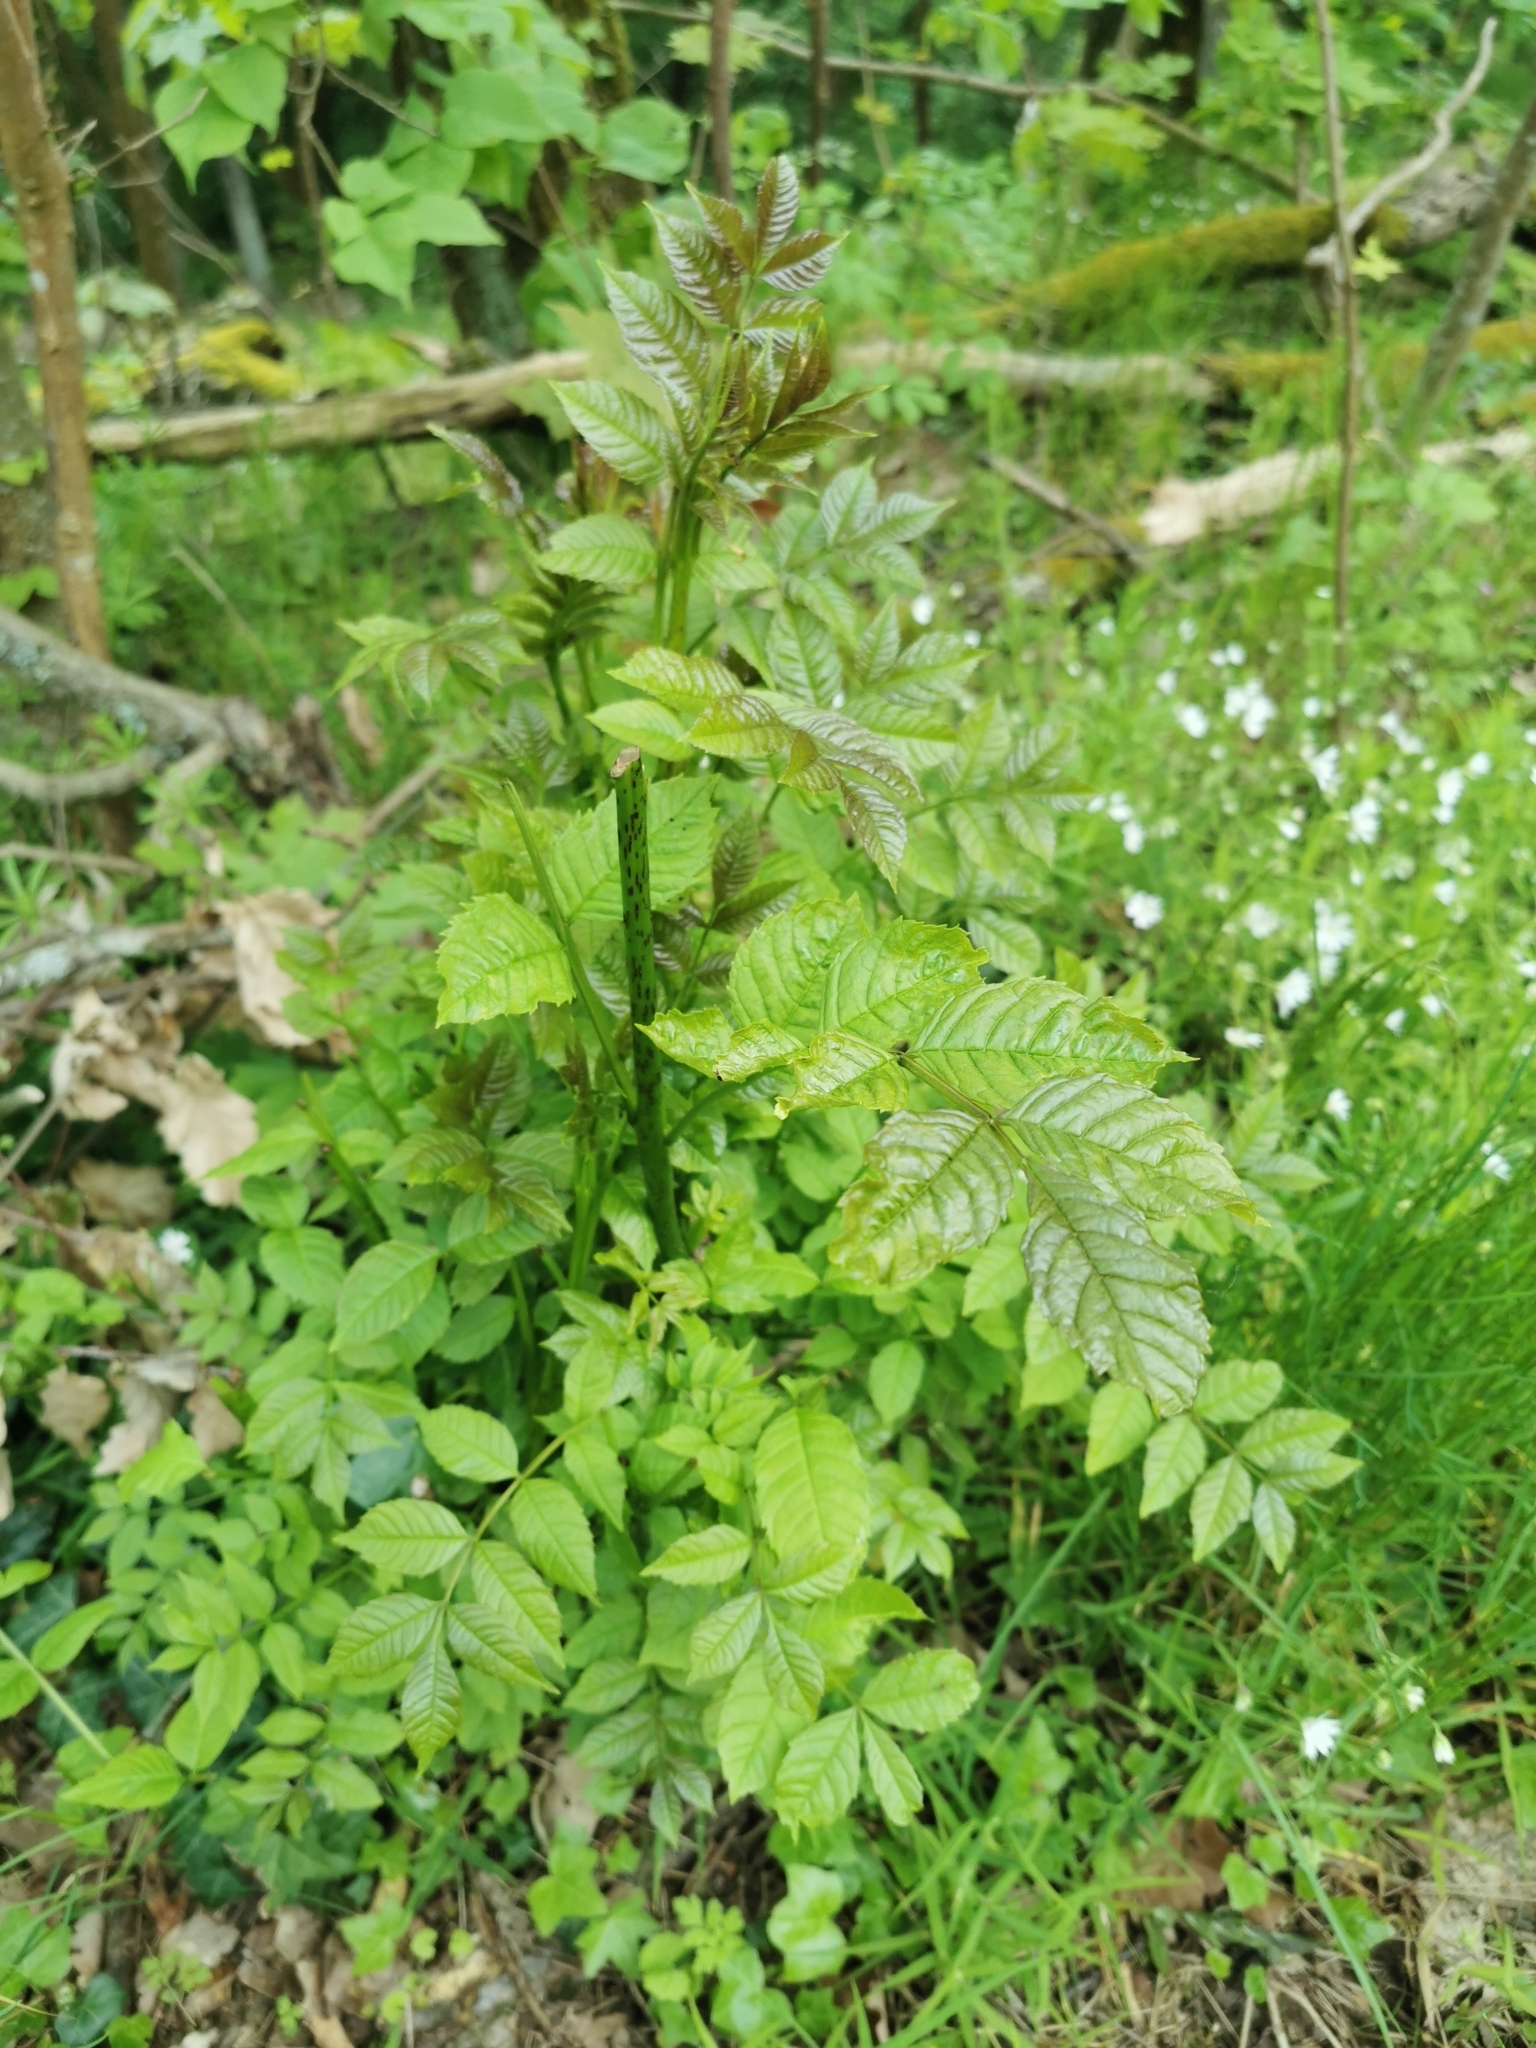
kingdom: Plantae
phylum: Tracheophyta
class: Magnoliopsida
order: Lamiales
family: Oleaceae
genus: Fraxinus
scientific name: Fraxinus excelsior
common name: European ash
